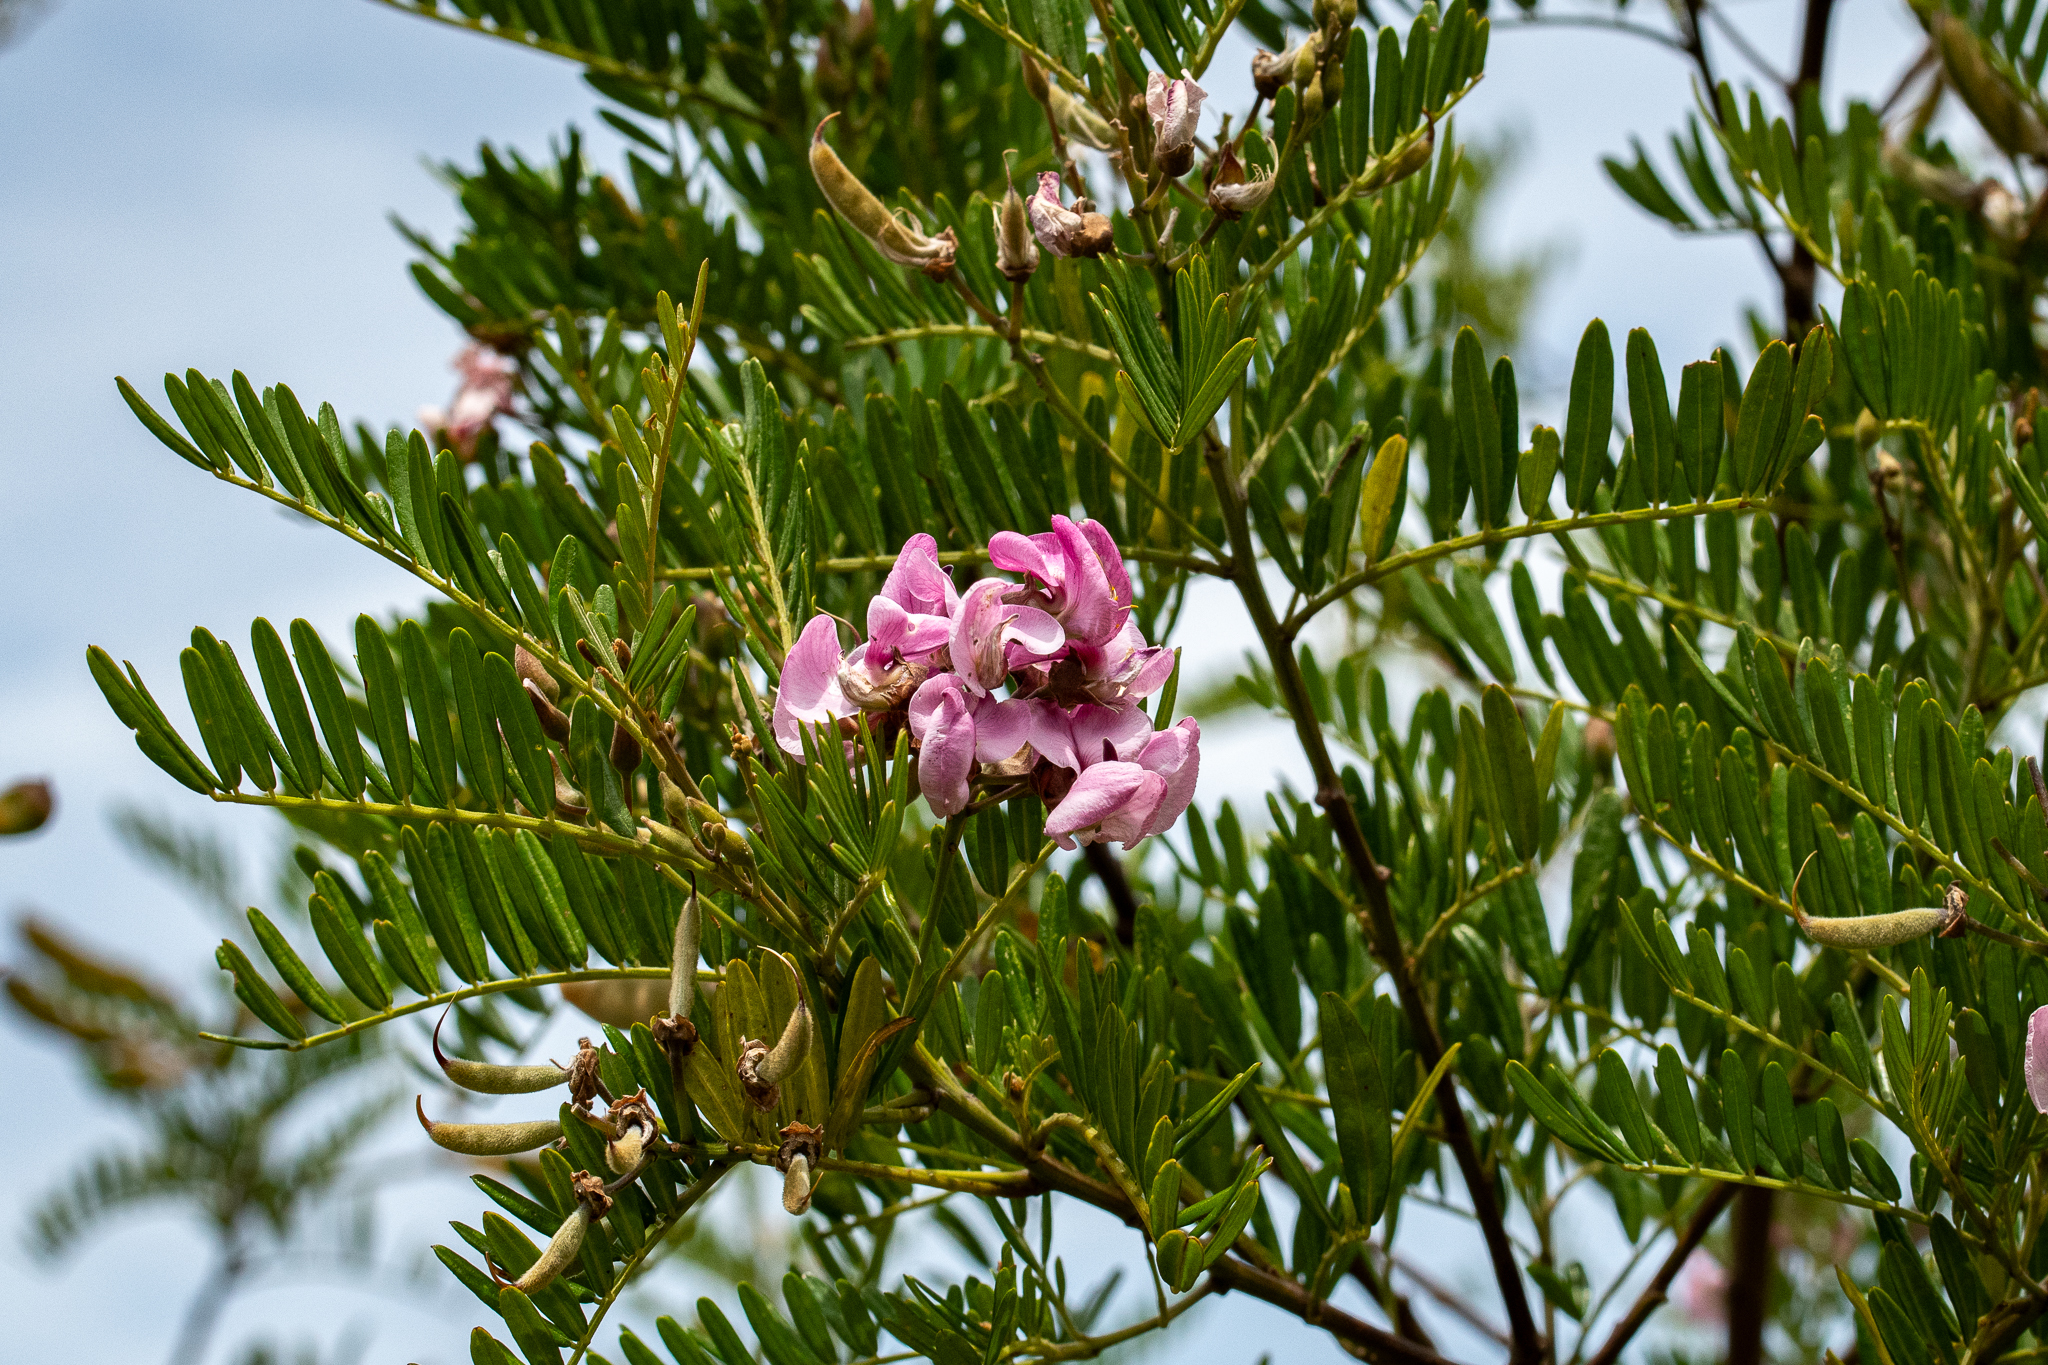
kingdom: Plantae
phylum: Tracheophyta
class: Magnoliopsida
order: Fabales
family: Fabaceae
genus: Virgilia
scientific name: Virgilia divaricata
